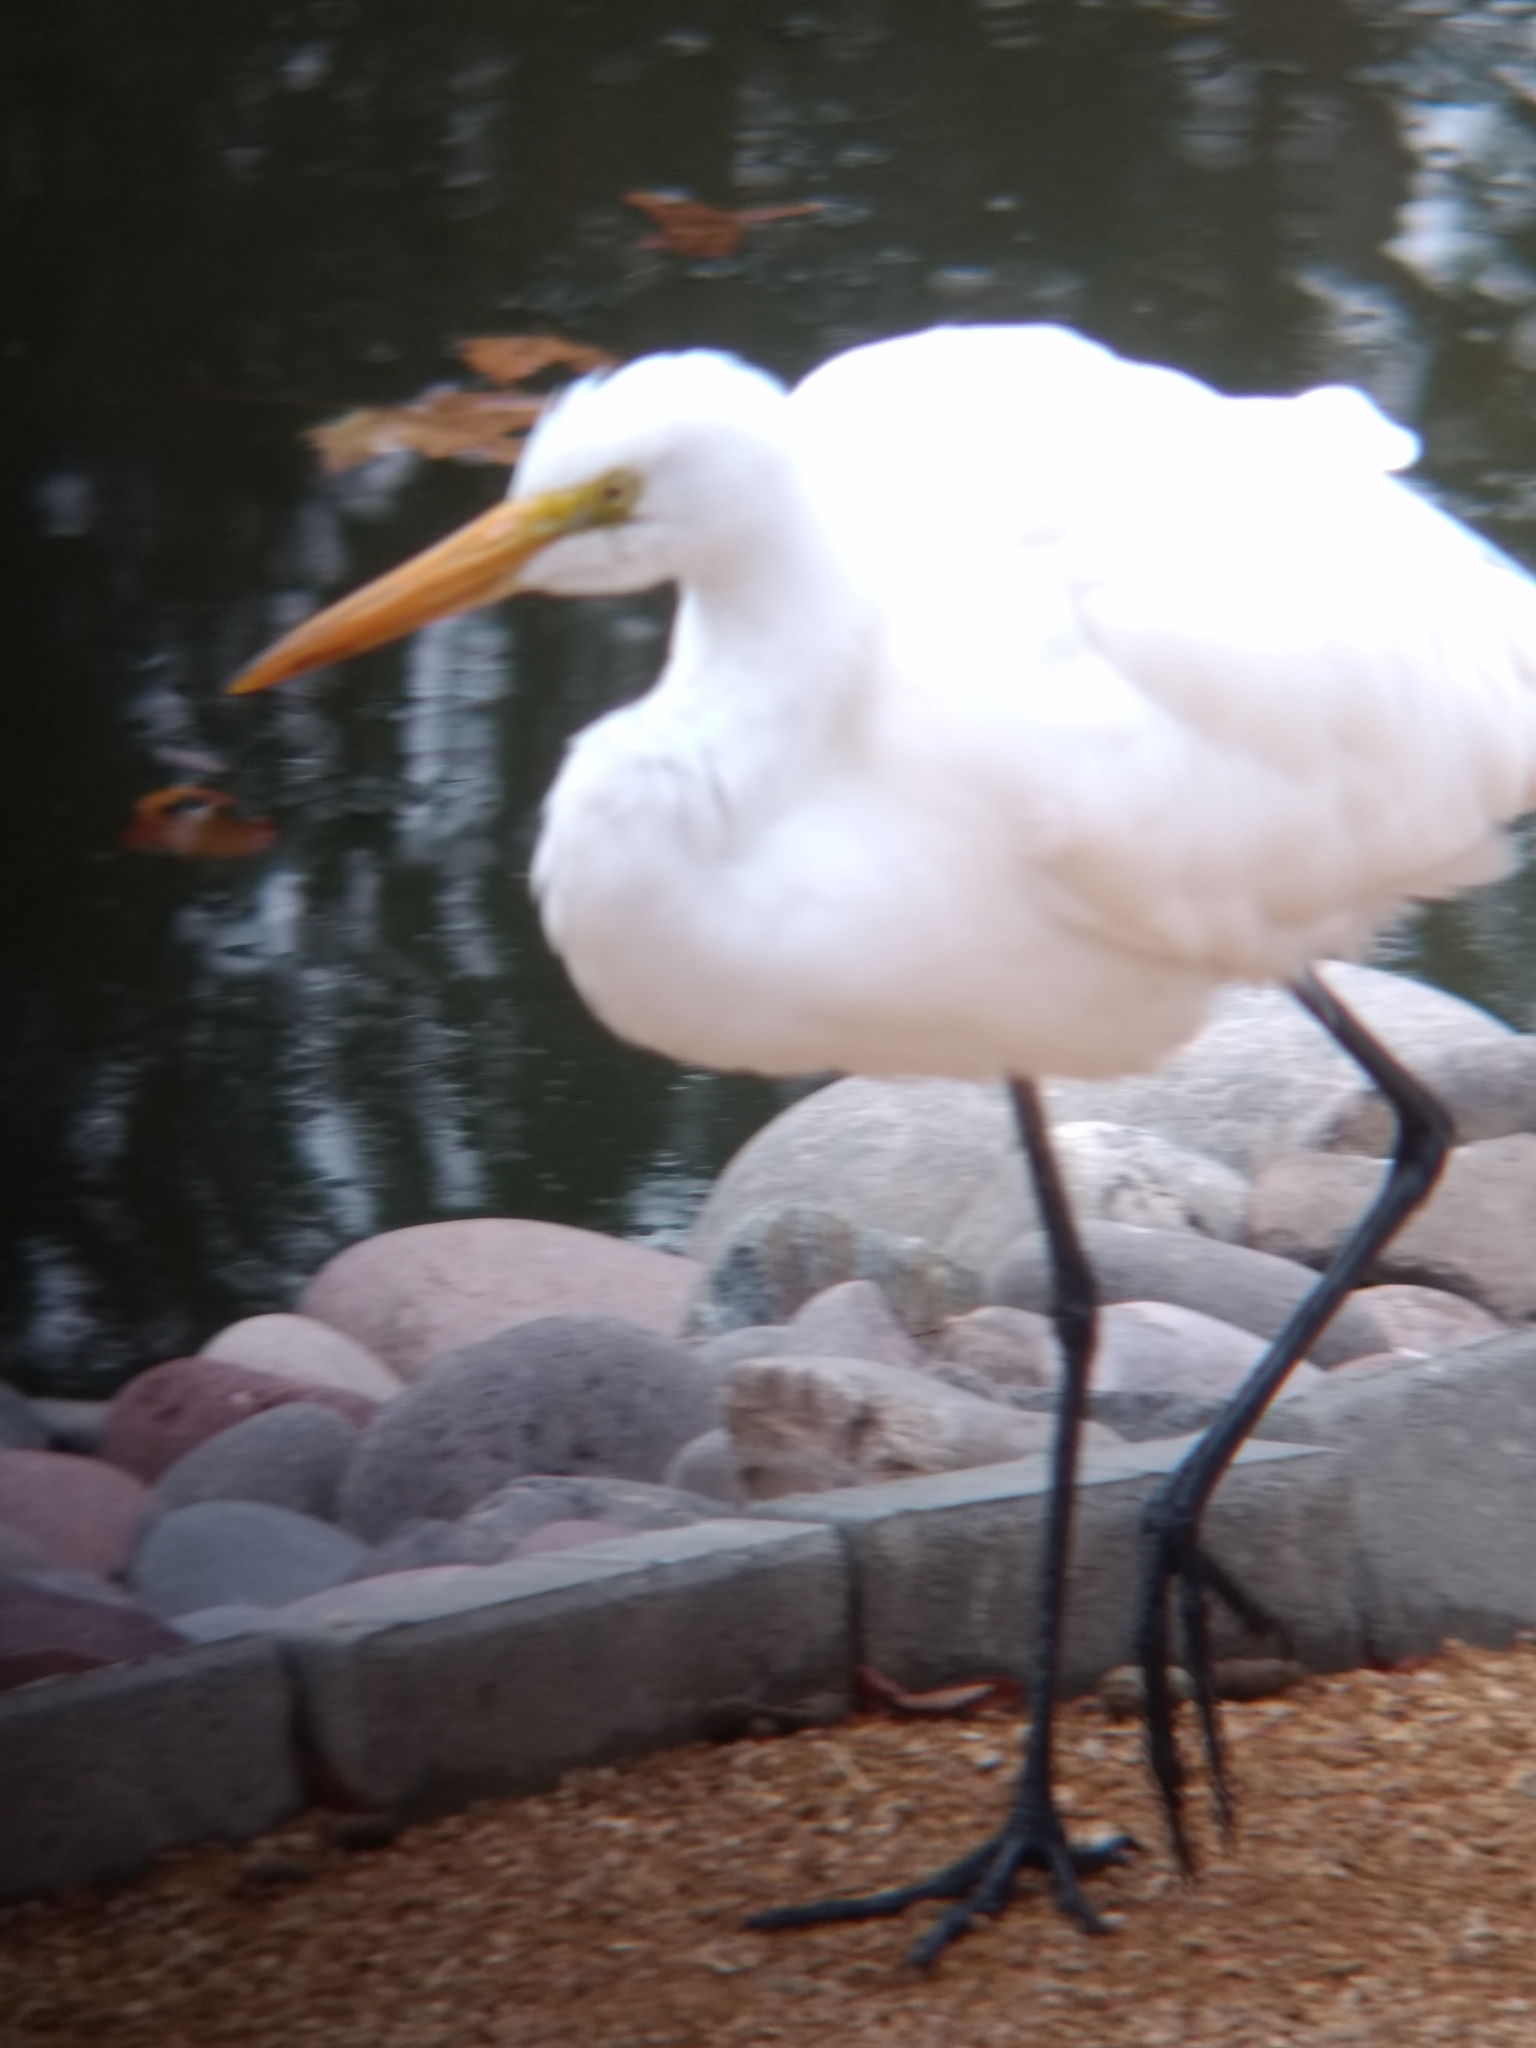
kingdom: Animalia
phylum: Chordata
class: Aves
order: Pelecaniformes
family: Ardeidae
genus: Ardea
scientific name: Ardea alba
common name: Great egret
